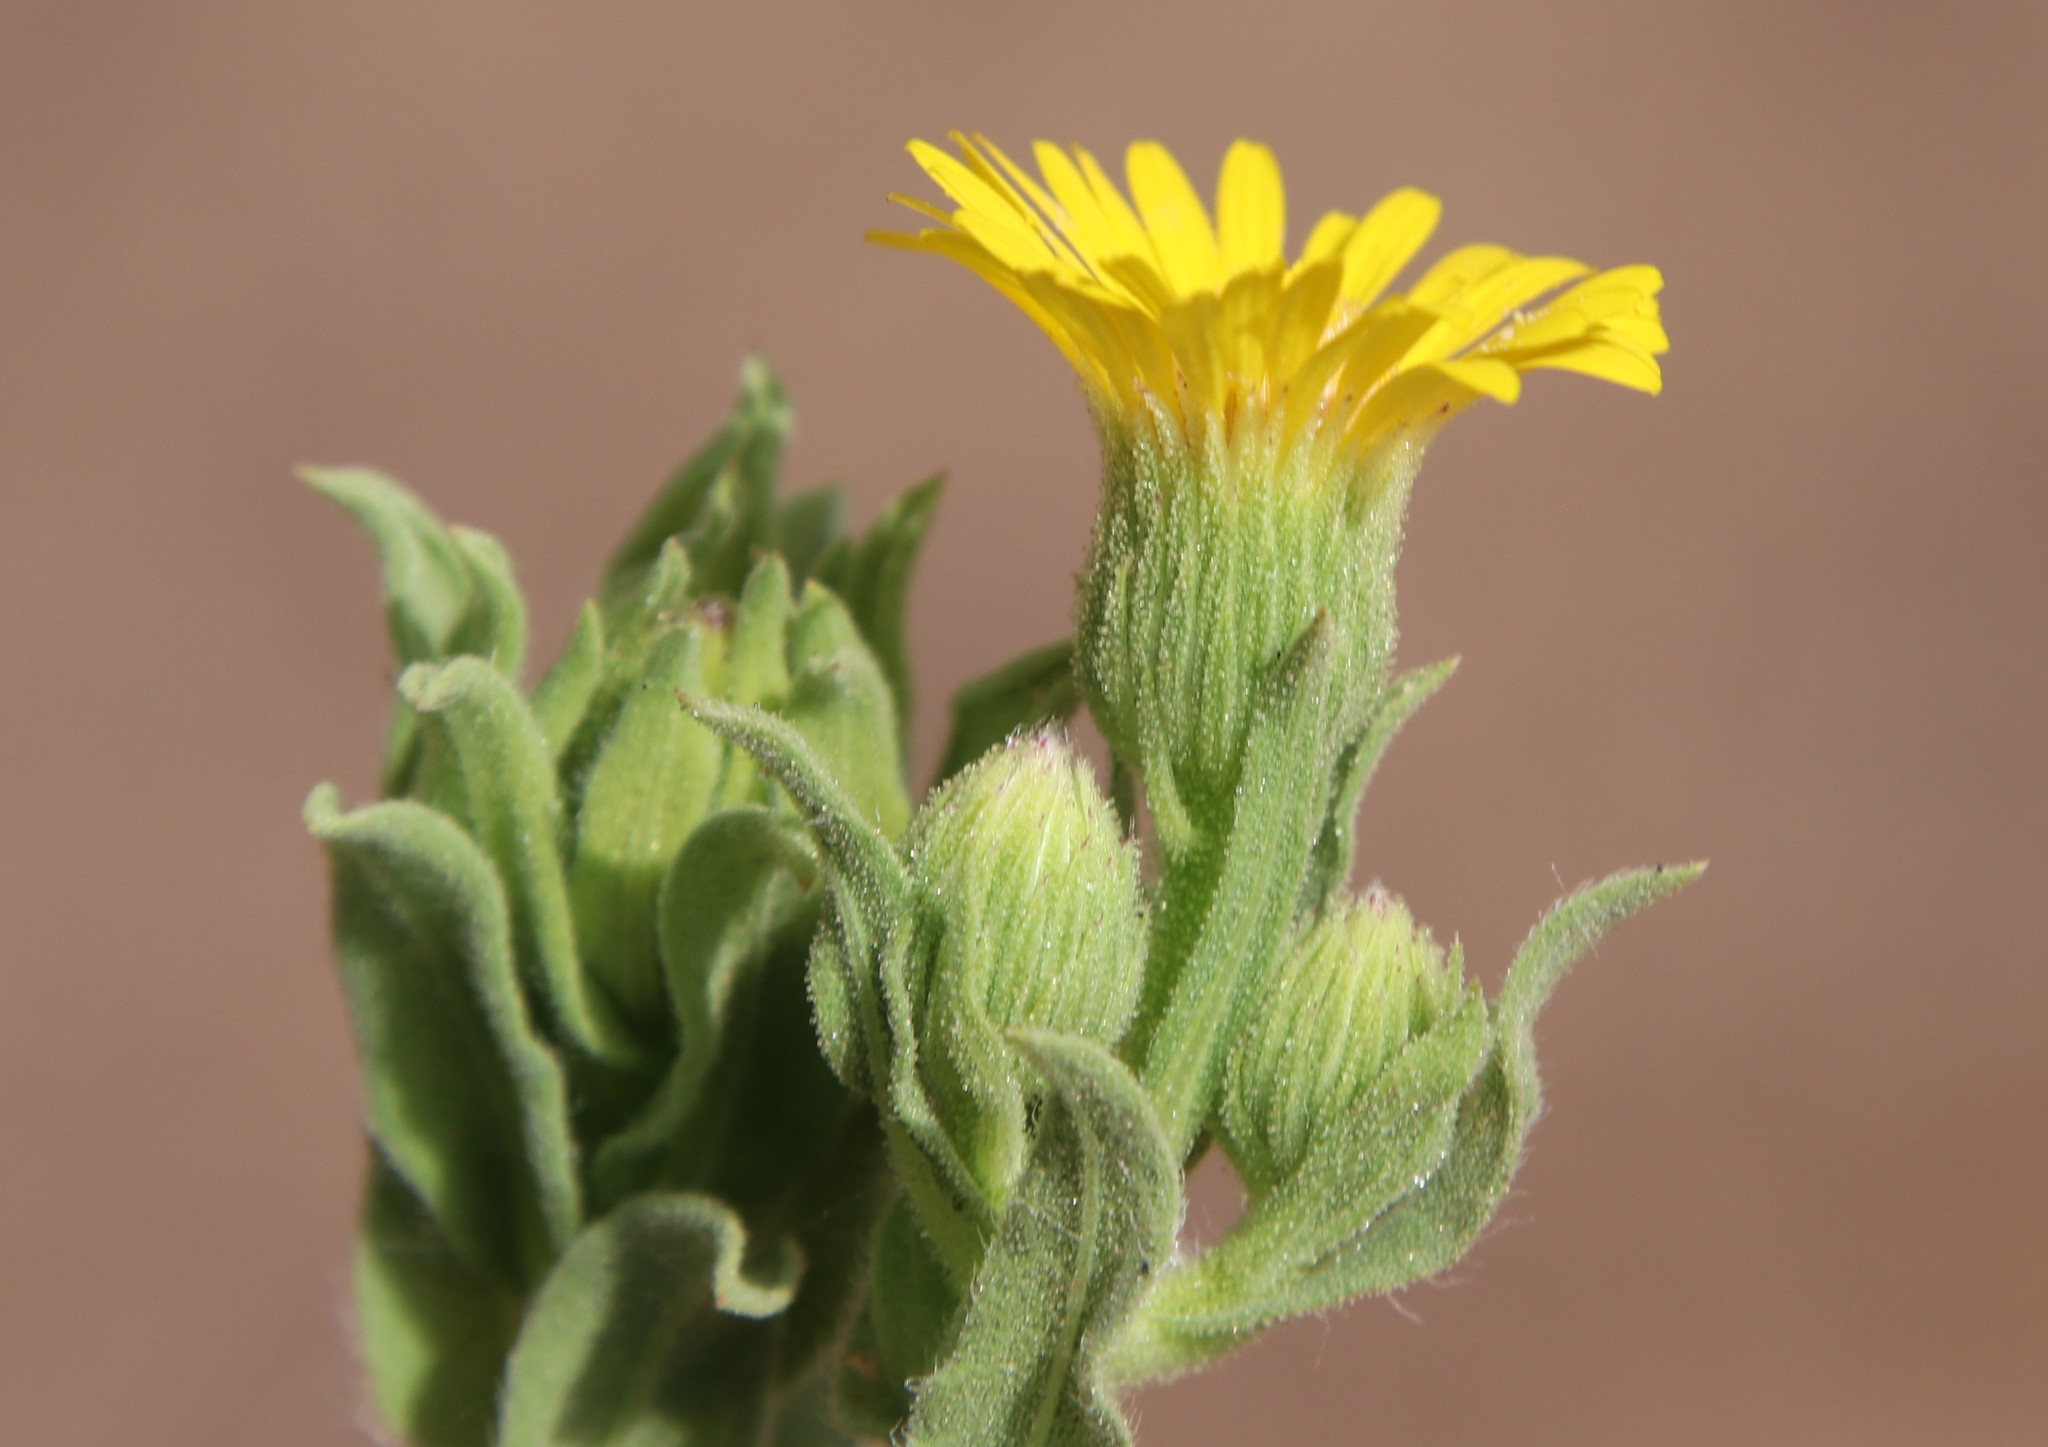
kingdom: Plantae
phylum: Tracheophyta
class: Magnoliopsida
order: Asterales
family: Asteraceae
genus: Heterotheca
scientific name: Heterotheca grandiflora
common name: Telegraphweed
